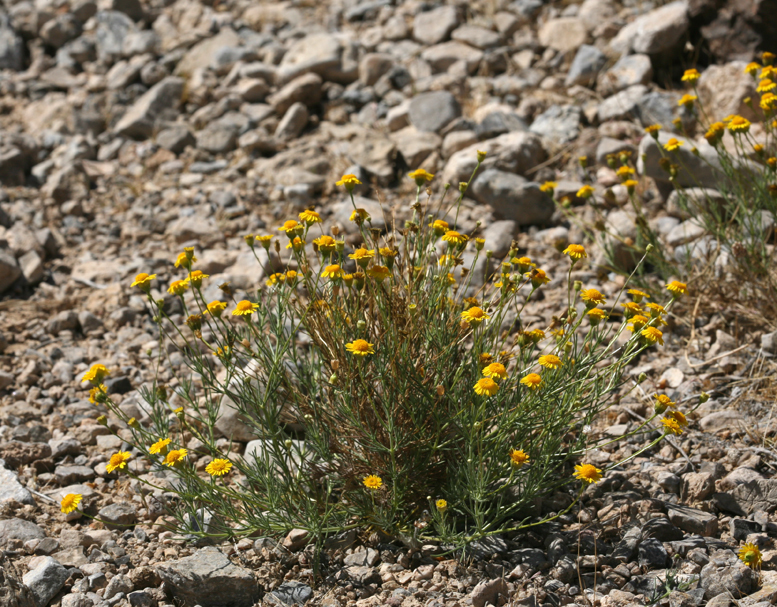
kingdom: Plantae
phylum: Tracheophyta
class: Magnoliopsida
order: Asterales
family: Asteraceae
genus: Thymophylla
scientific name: Thymophylla pentachaeta
